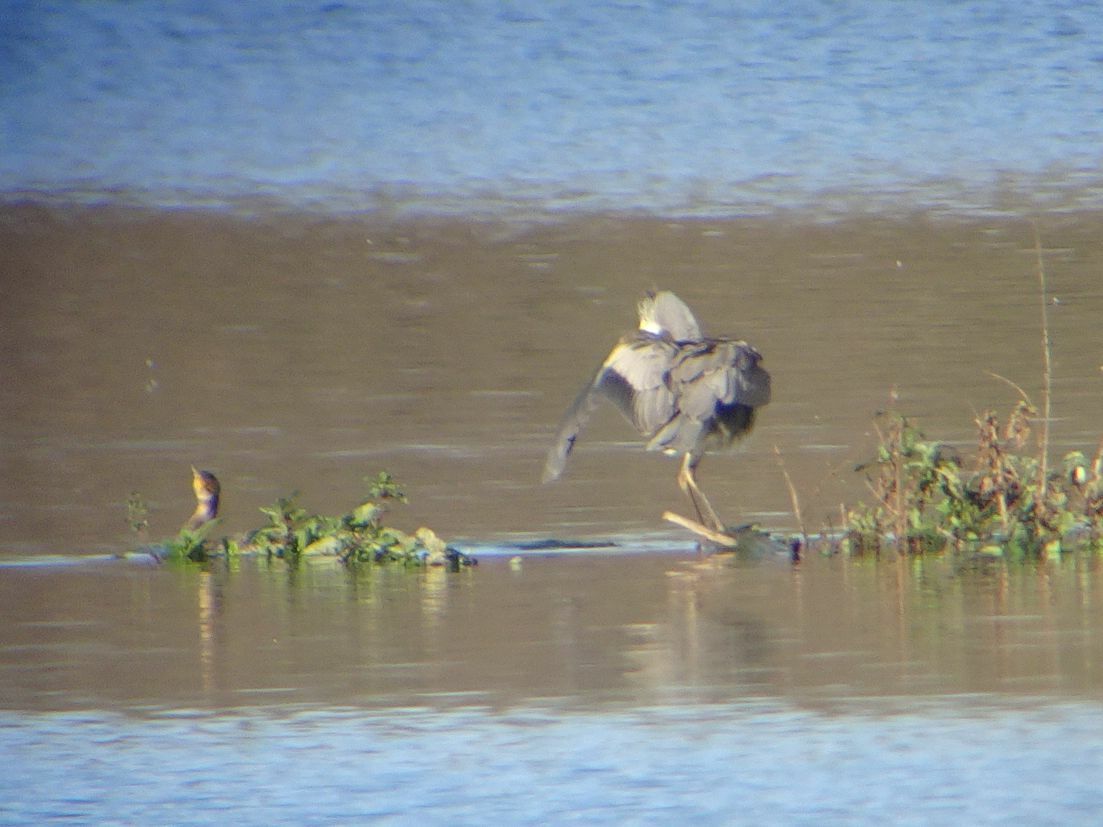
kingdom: Animalia
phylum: Chordata
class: Aves
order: Pelecaniformes
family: Ardeidae
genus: Ardea
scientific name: Ardea cinerea
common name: Grey heron
